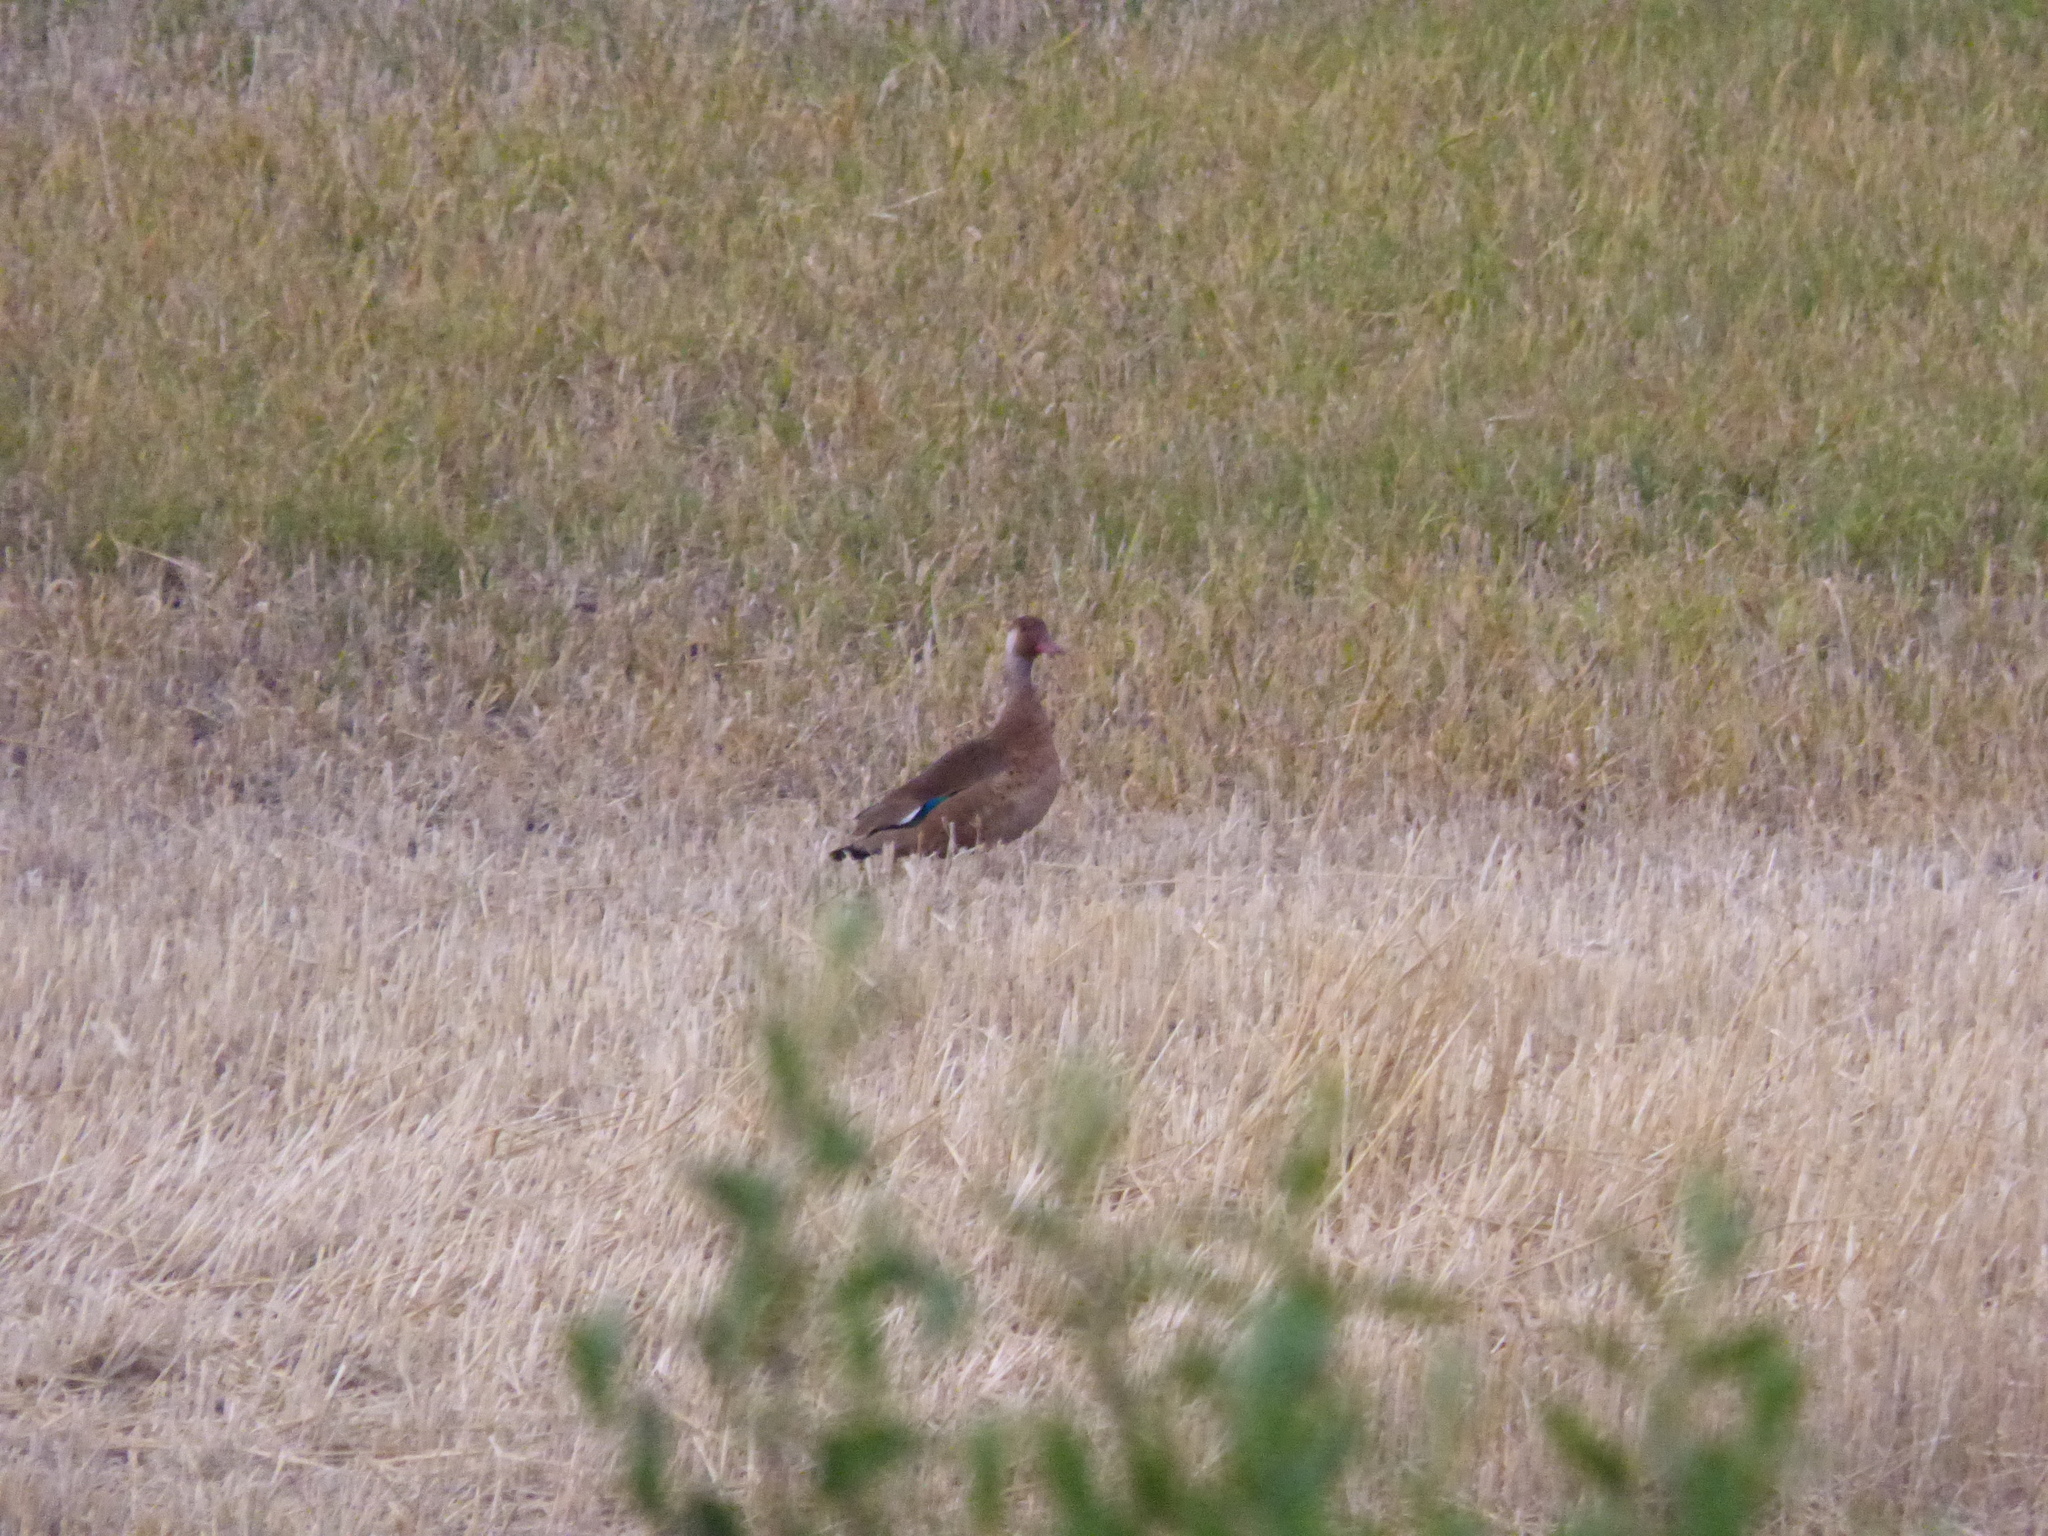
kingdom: Animalia
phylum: Chordata
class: Aves
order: Anseriformes
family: Anatidae
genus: Amazonetta
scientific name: Amazonetta brasiliensis
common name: Brazilian teal
